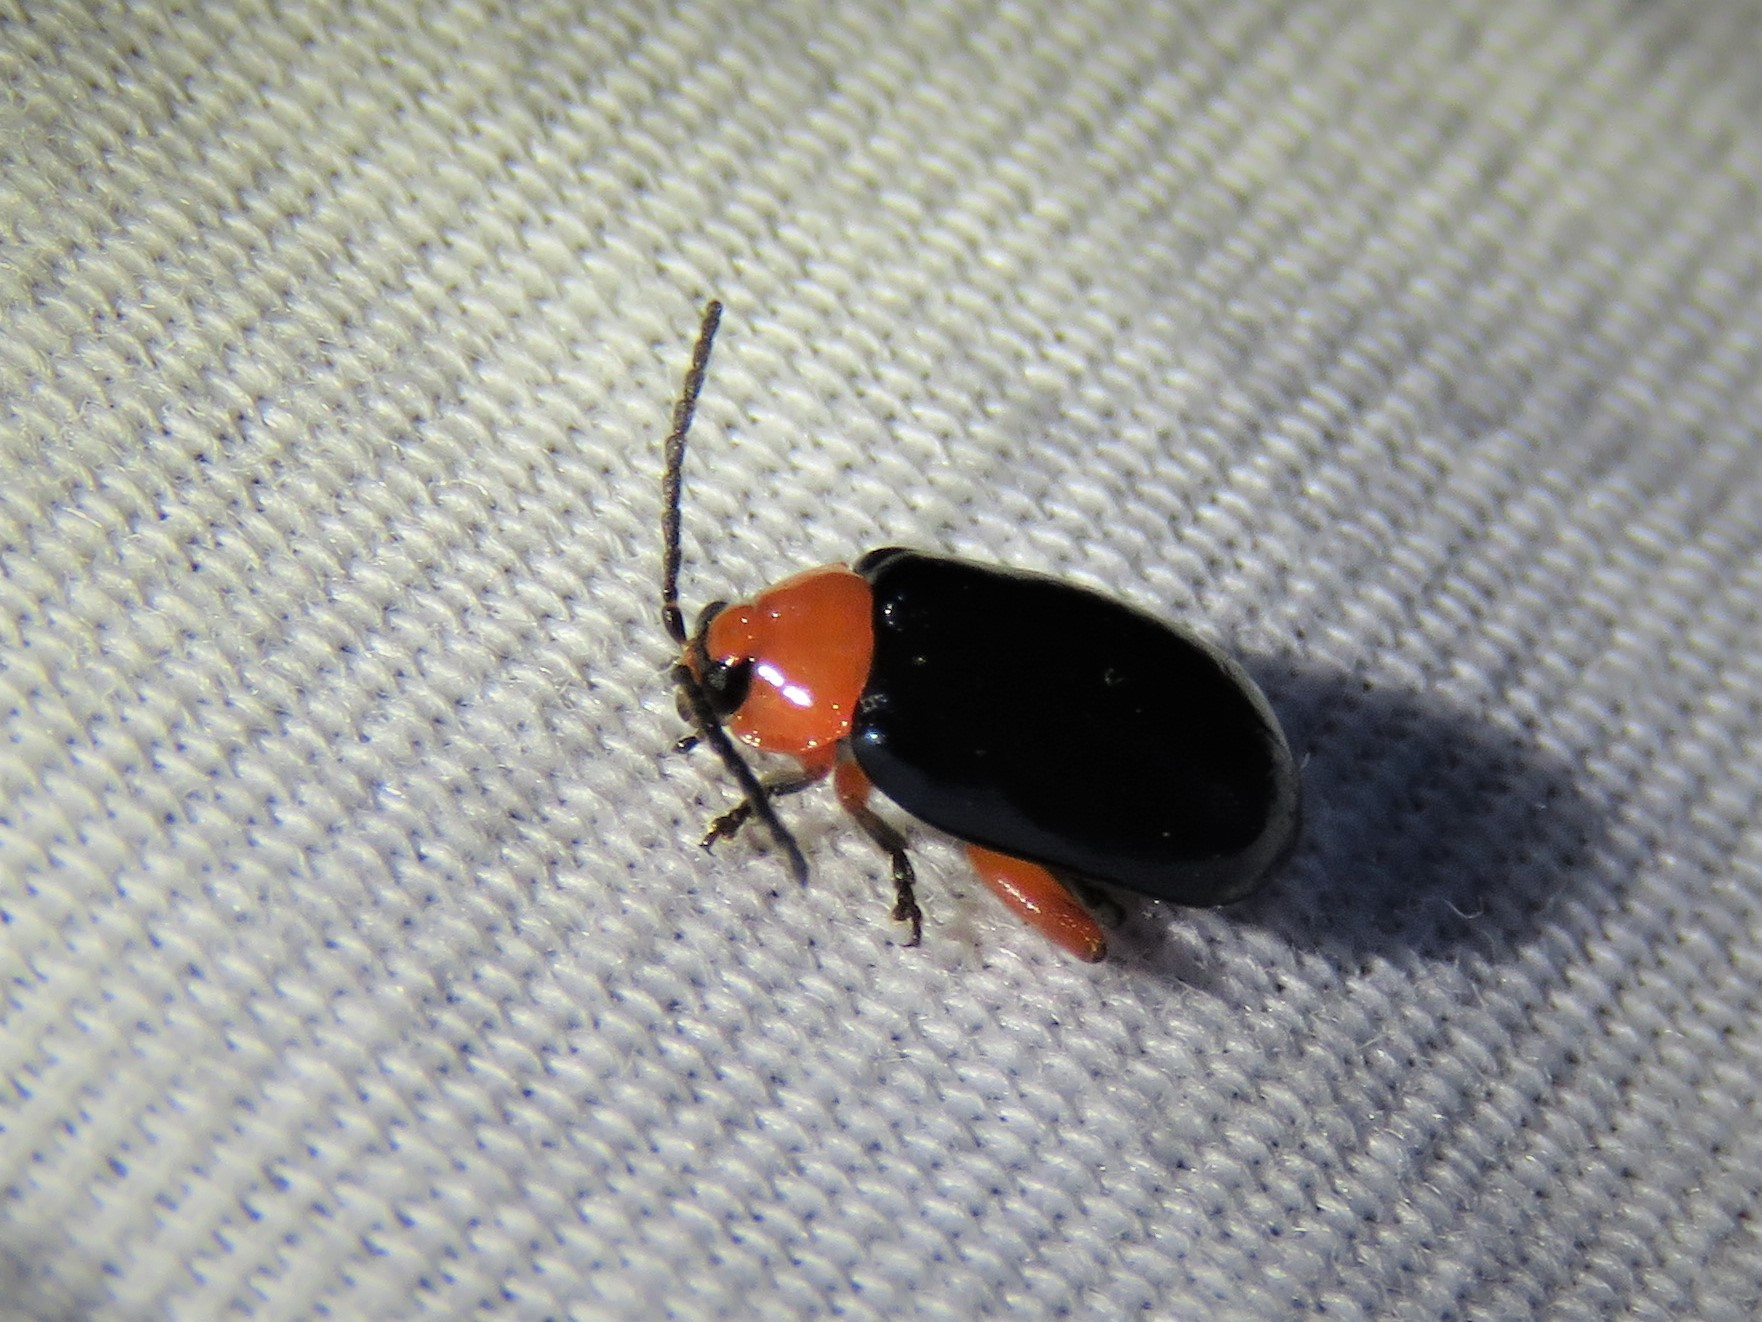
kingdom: Animalia
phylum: Arthropoda
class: Insecta
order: Coleoptera
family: Chrysomelidae
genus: Asphaera
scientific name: Asphaera lustrans
